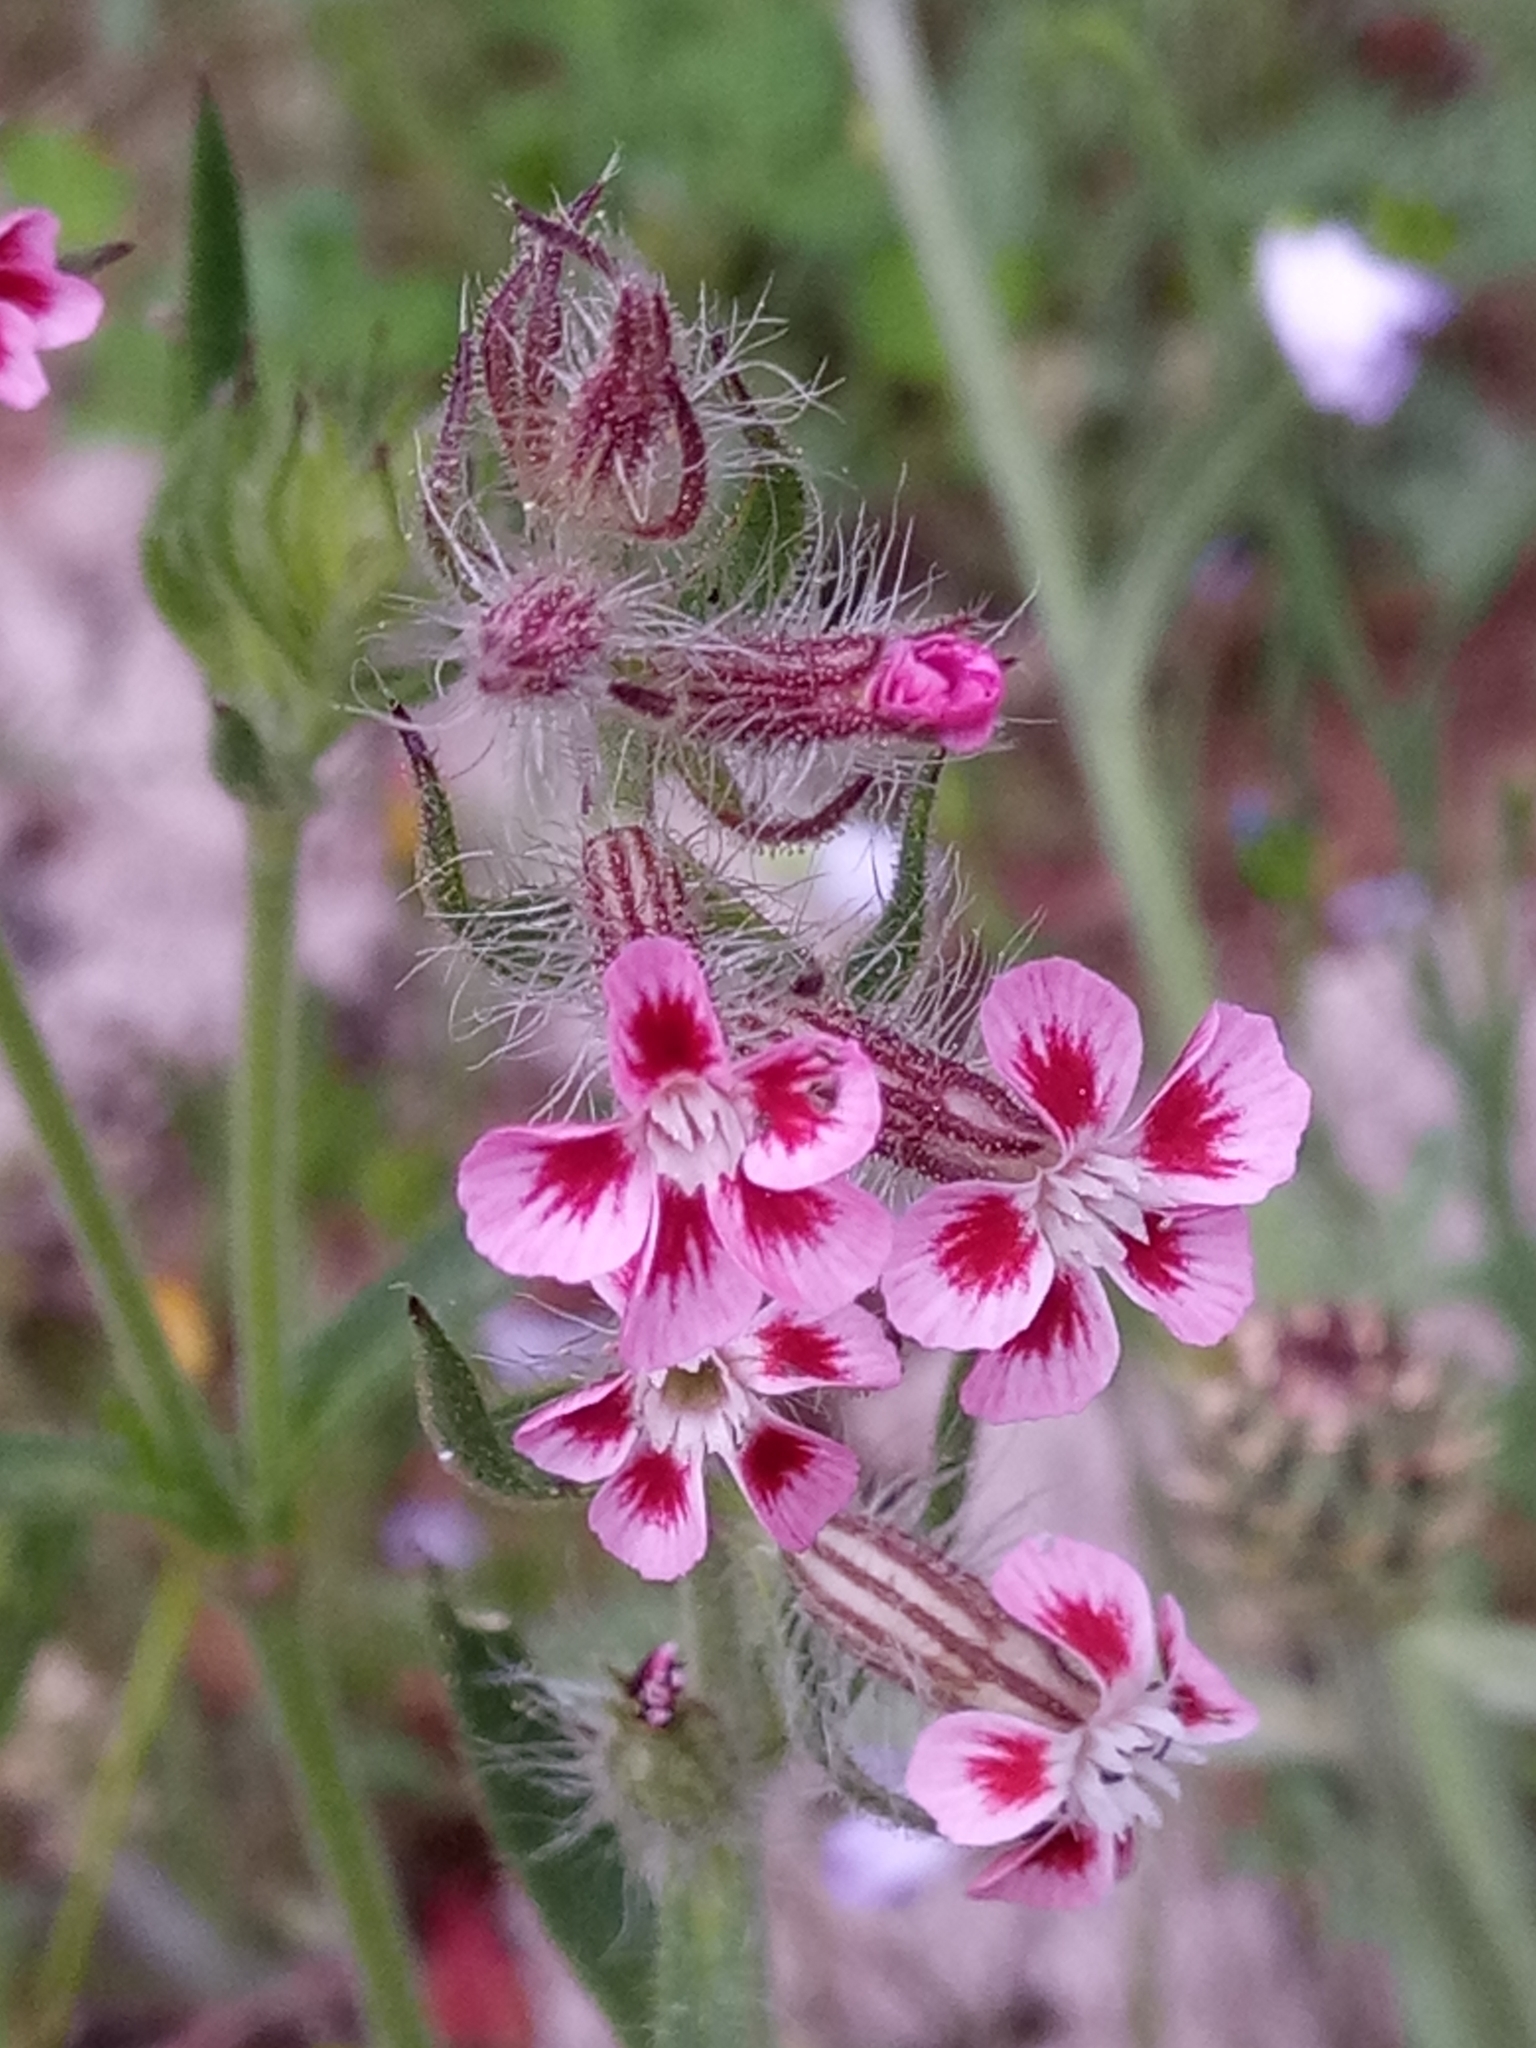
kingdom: Plantae
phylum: Tracheophyta
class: Magnoliopsida
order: Caryophyllales
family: Caryophyllaceae
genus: Silene
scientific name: Silene gallica
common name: Small-flowered catchfly
